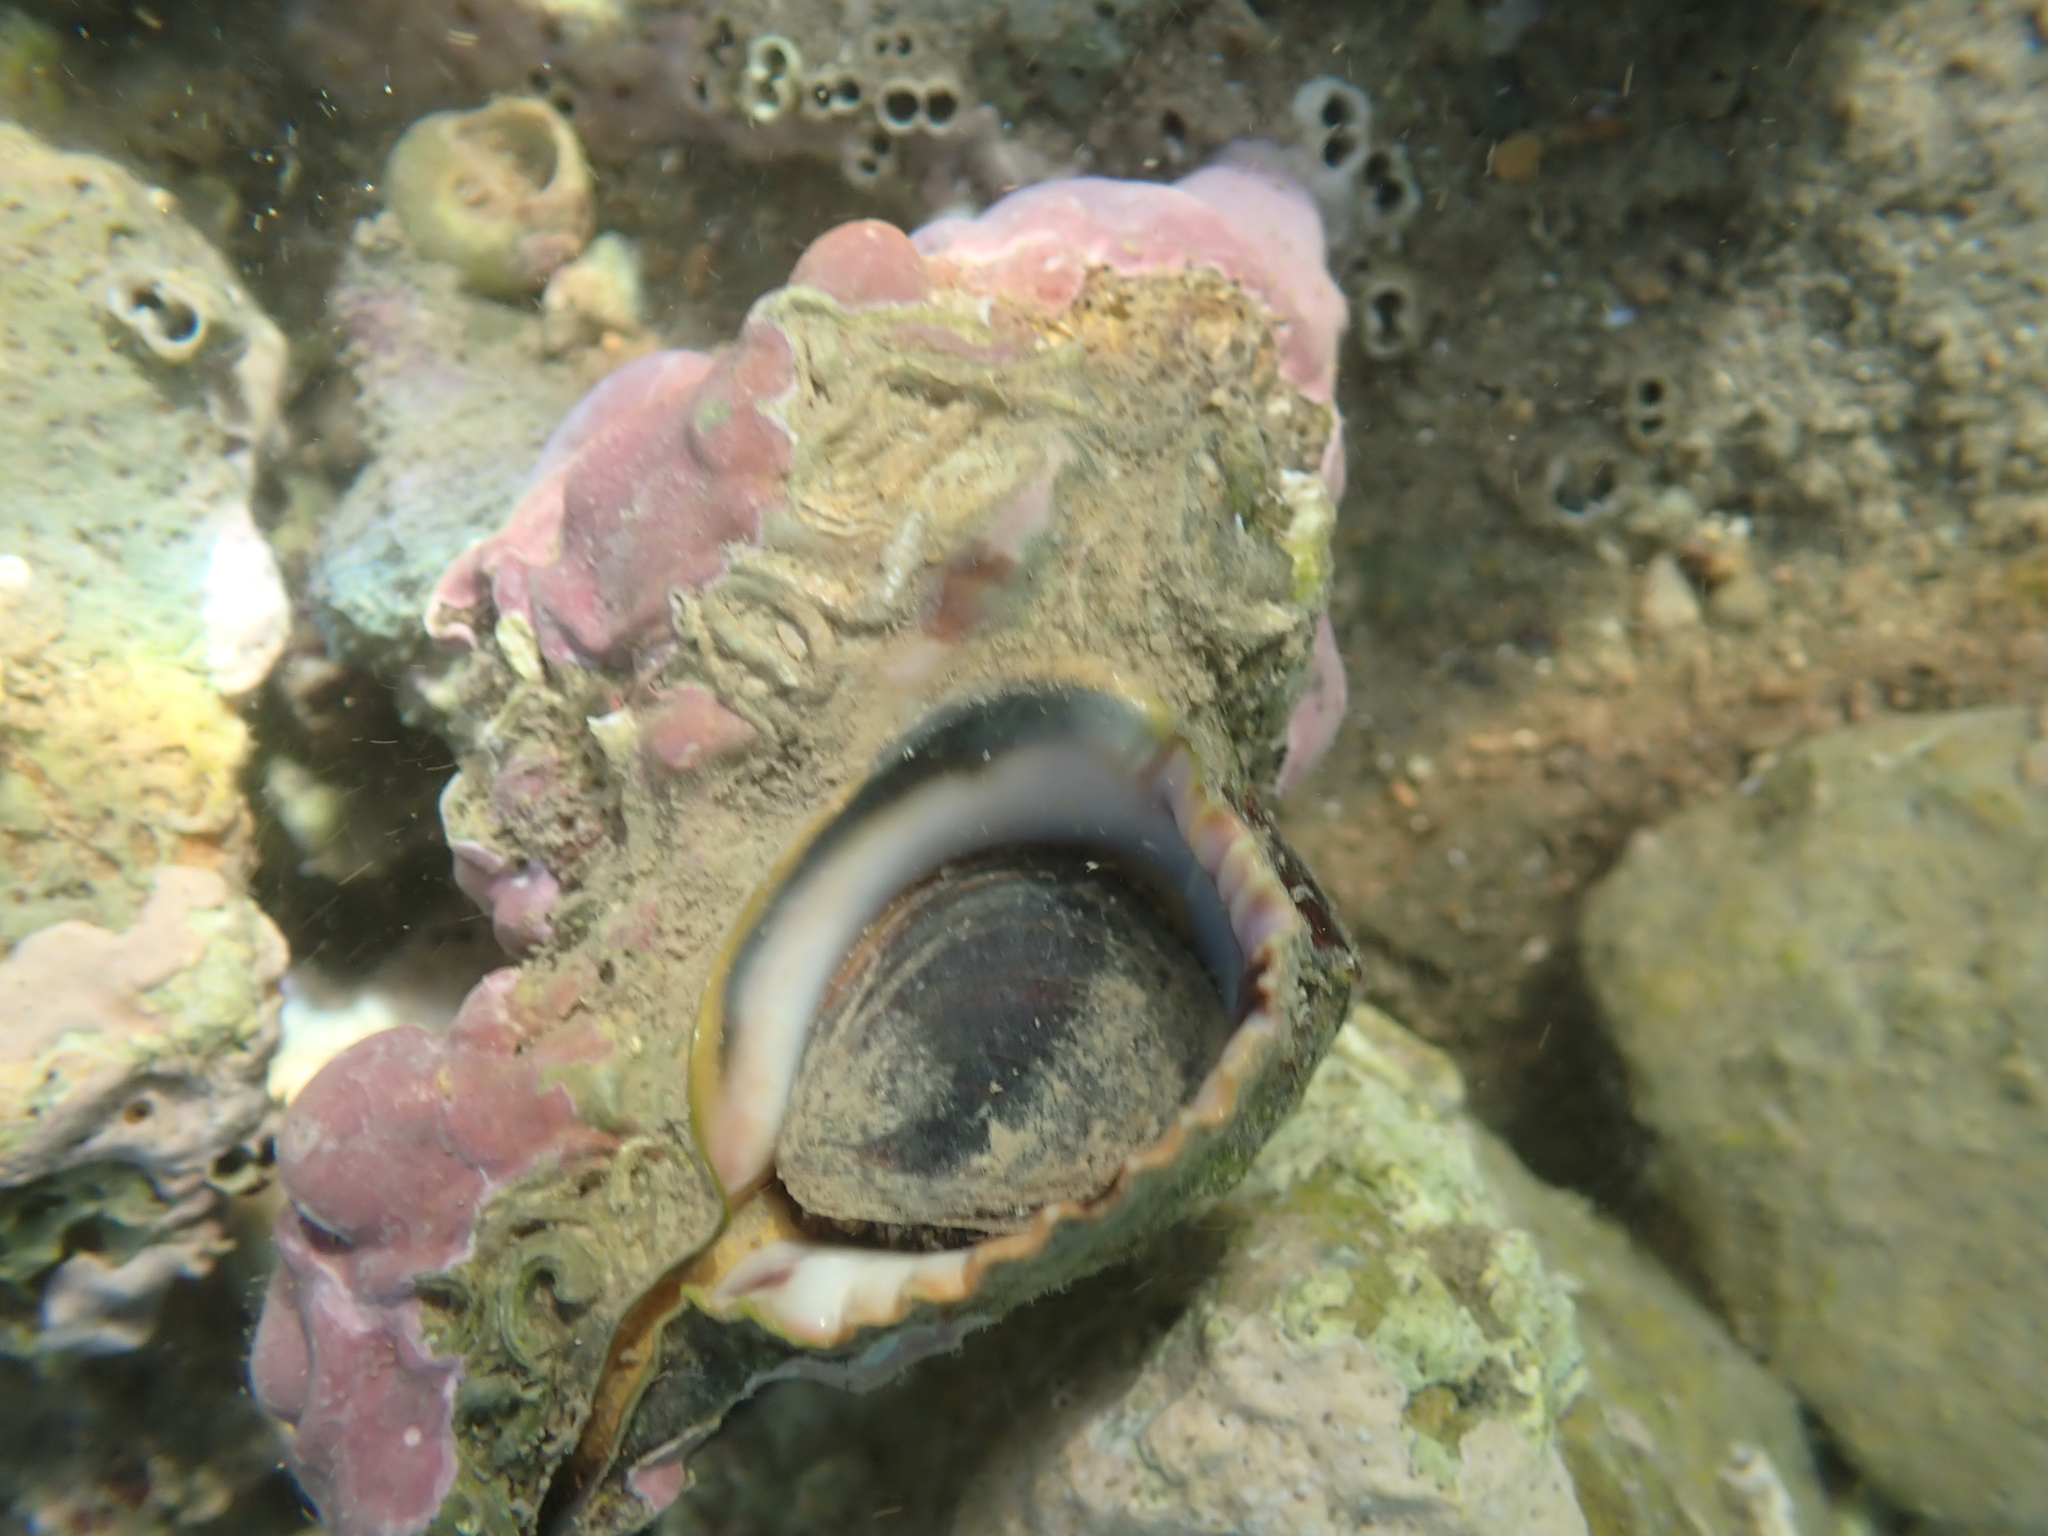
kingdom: Animalia
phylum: Mollusca
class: Gastropoda
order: Neogastropoda
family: Muricidae
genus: Hexaplex
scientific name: Hexaplex trunculus
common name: Banded dye-murex
